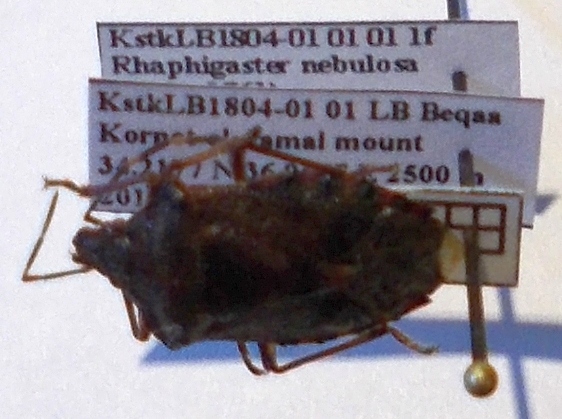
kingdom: Animalia
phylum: Arthropoda
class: Insecta
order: Hemiptera
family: Pentatomidae
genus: Rhaphigaster
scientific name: Rhaphigaster nebulosa
